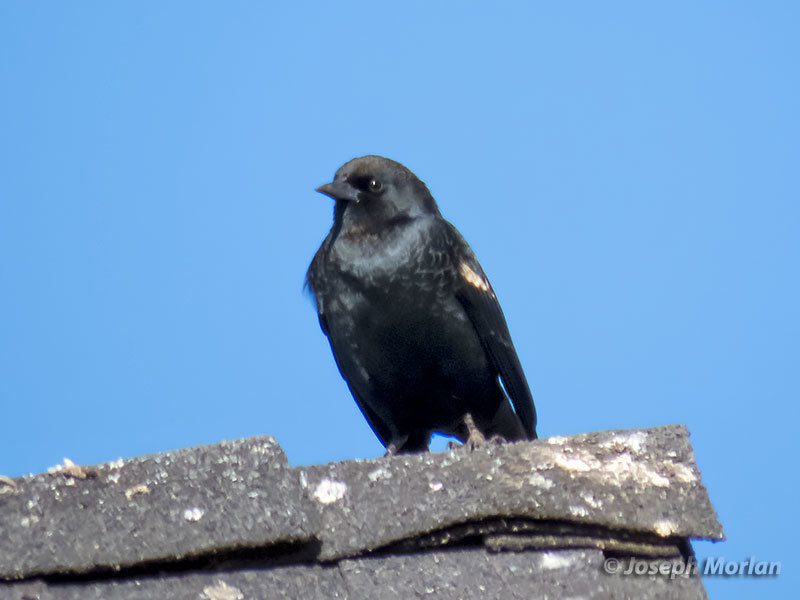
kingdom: Animalia
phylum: Chordata
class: Aves
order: Passeriformes
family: Icteridae
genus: Agelaius
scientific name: Agelaius tricolor
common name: Tricolored blackbird
